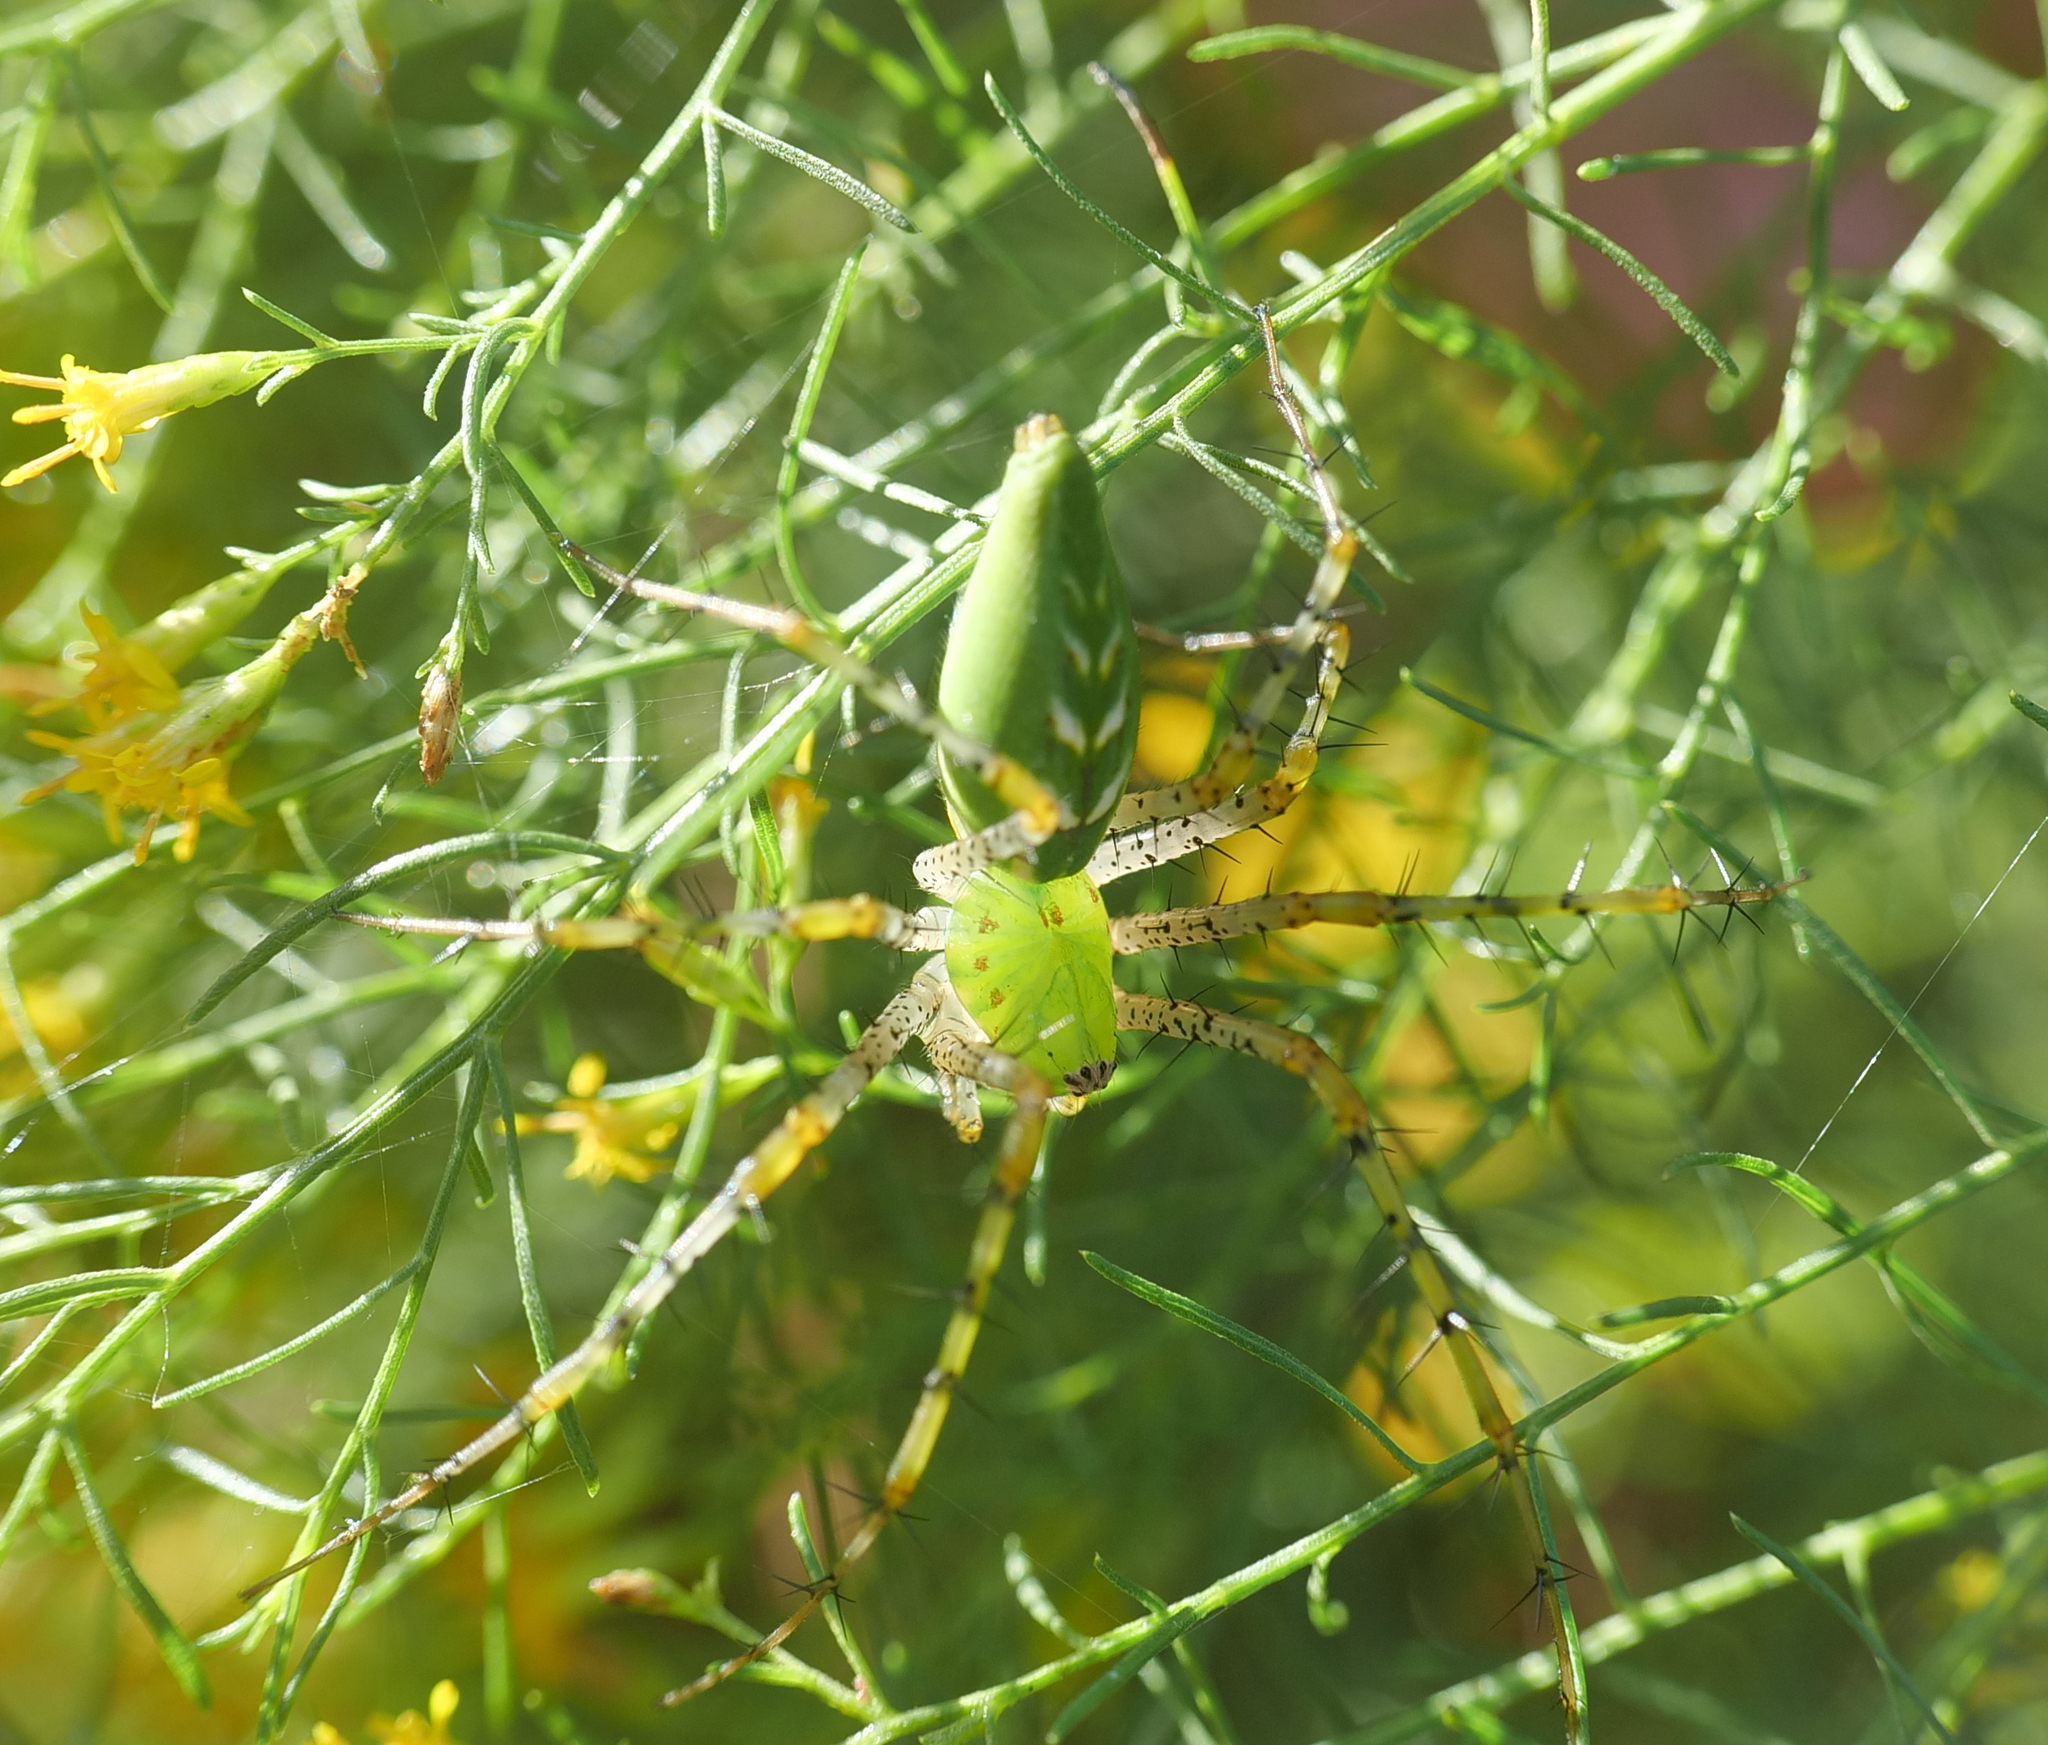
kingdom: Animalia
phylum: Arthropoda
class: Arachnida
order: Araneae
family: Oxyopidae
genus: Peucetia
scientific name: Peucetia viridans
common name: Lynx spiders
